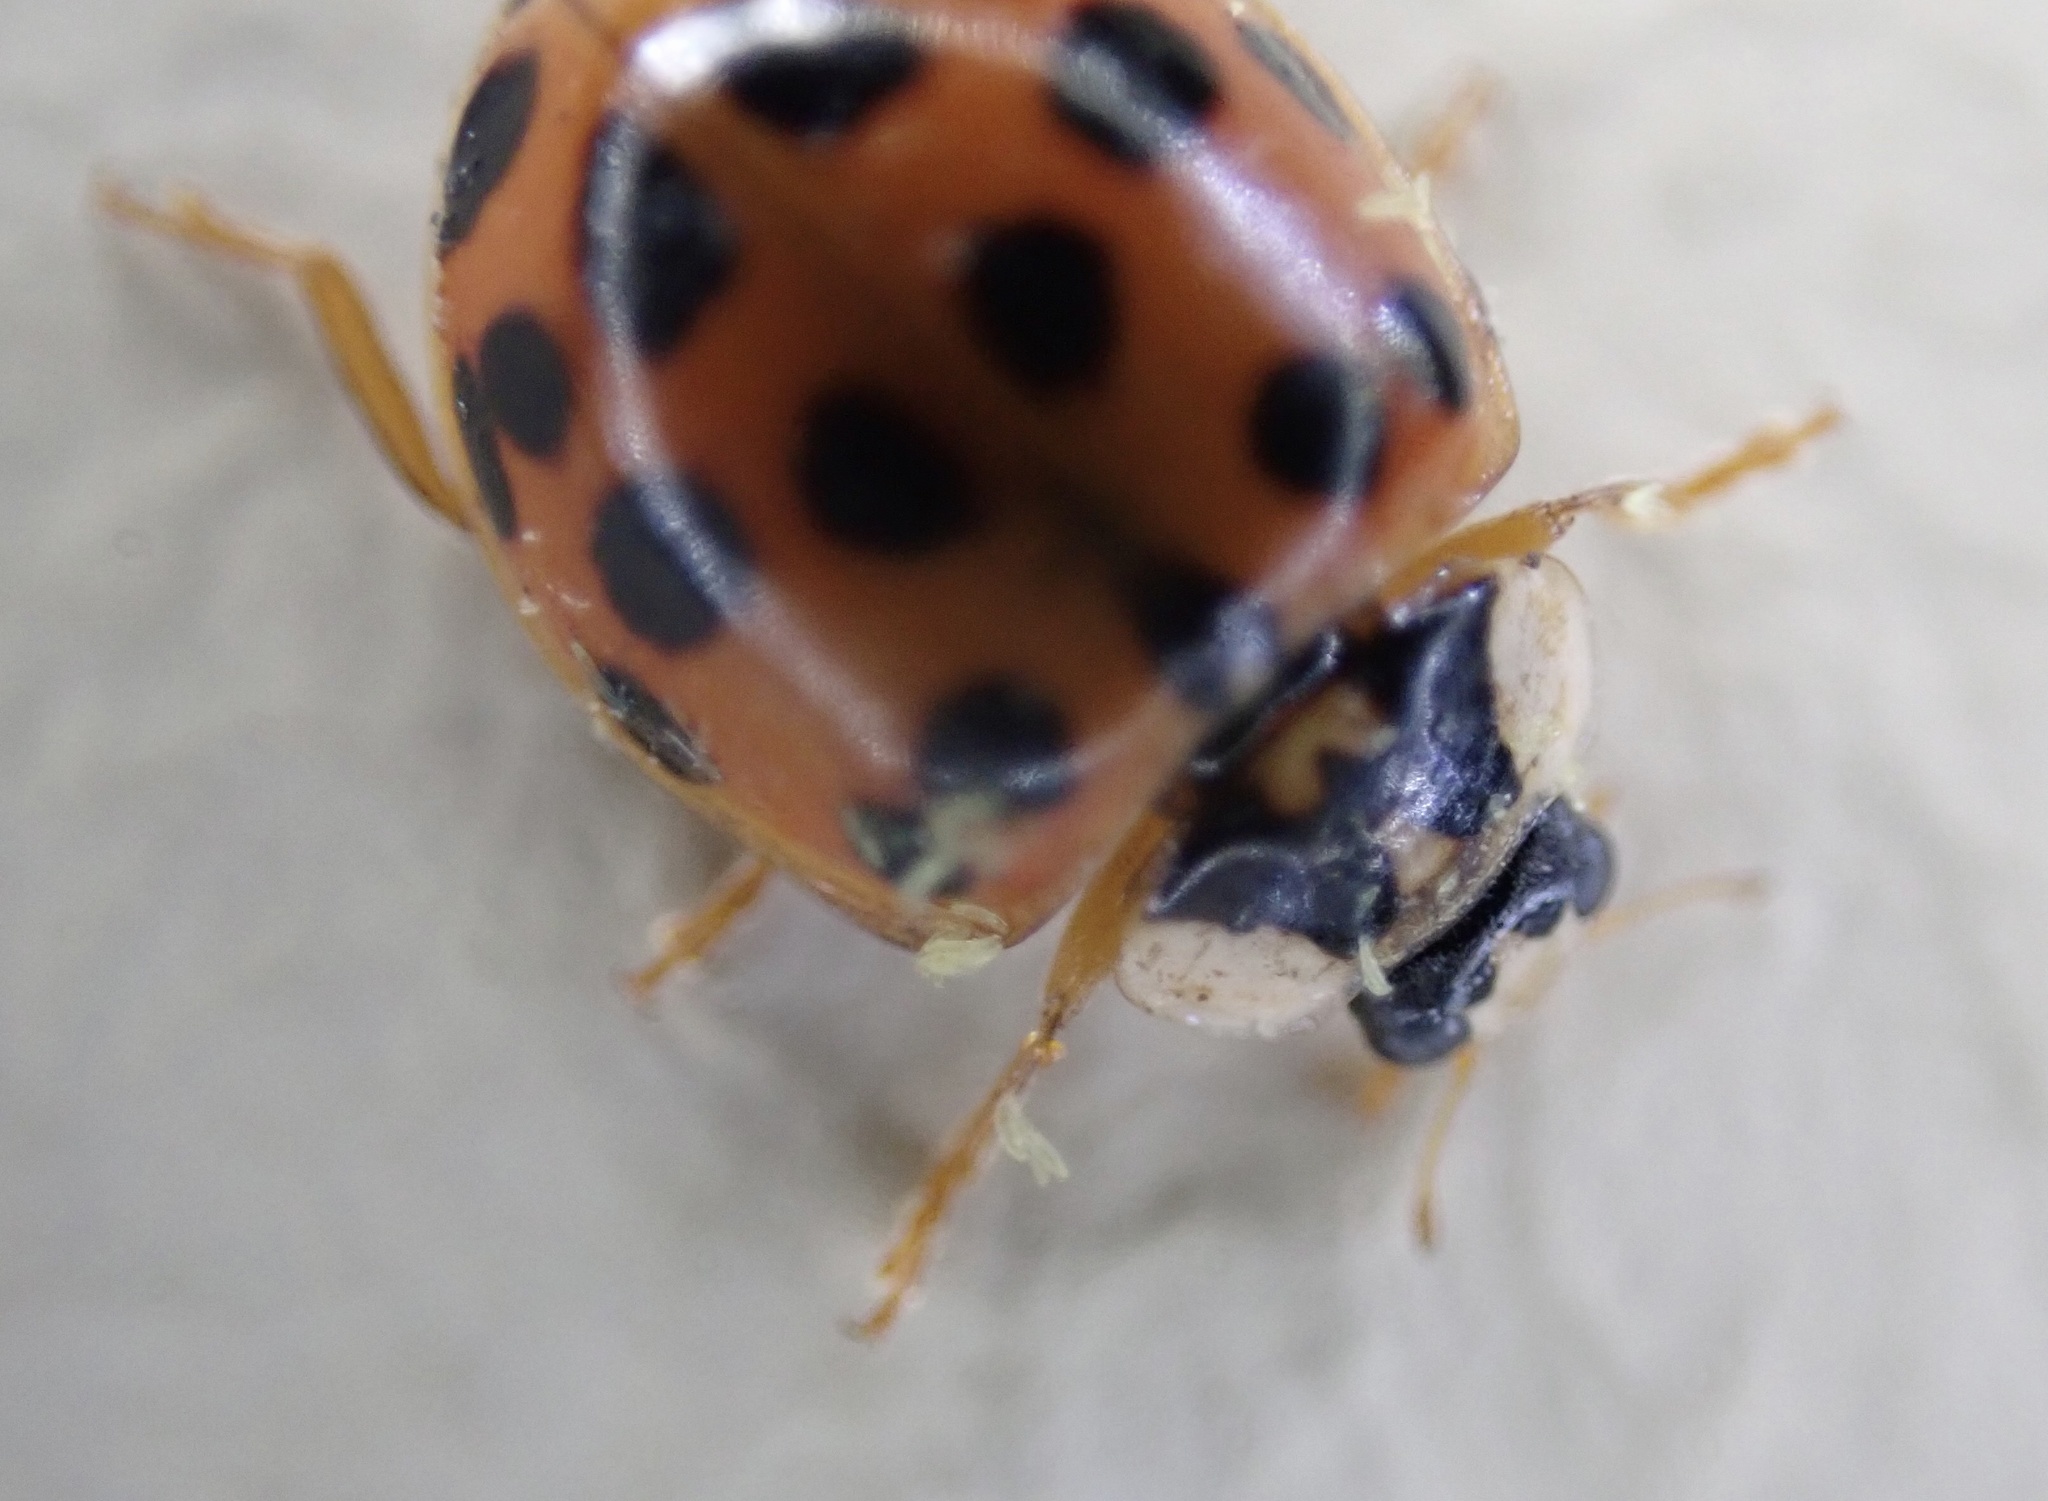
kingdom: Fungi
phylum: Ascomycota
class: Laboulbeniomycetes
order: Laboulbeniales
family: Laboulbeniaceae
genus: Hesperomyces
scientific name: Hesperomyces harmoniae
